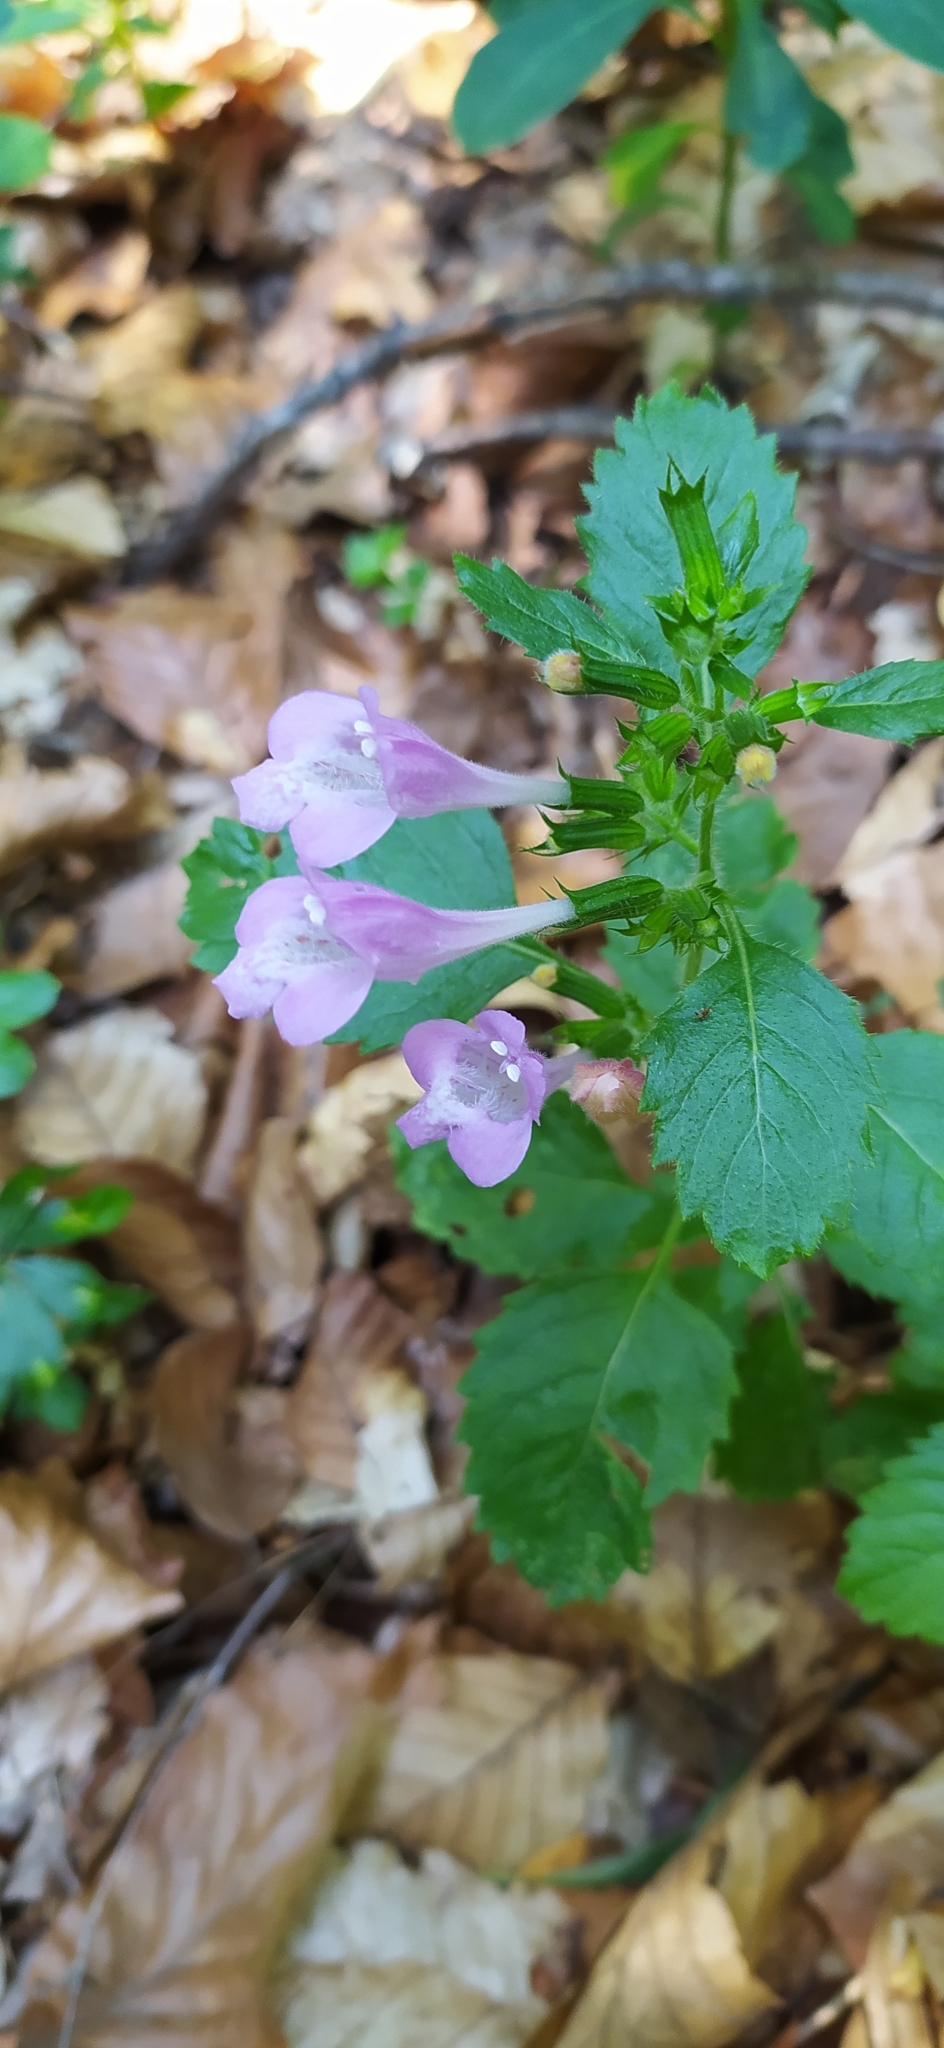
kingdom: Plantae
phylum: Tracheophyta
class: Magnoliopsida
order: Lamiales
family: Lamiaceae
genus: Clinopodium
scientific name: Clinopodium grandiflorum
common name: Greater calamint
